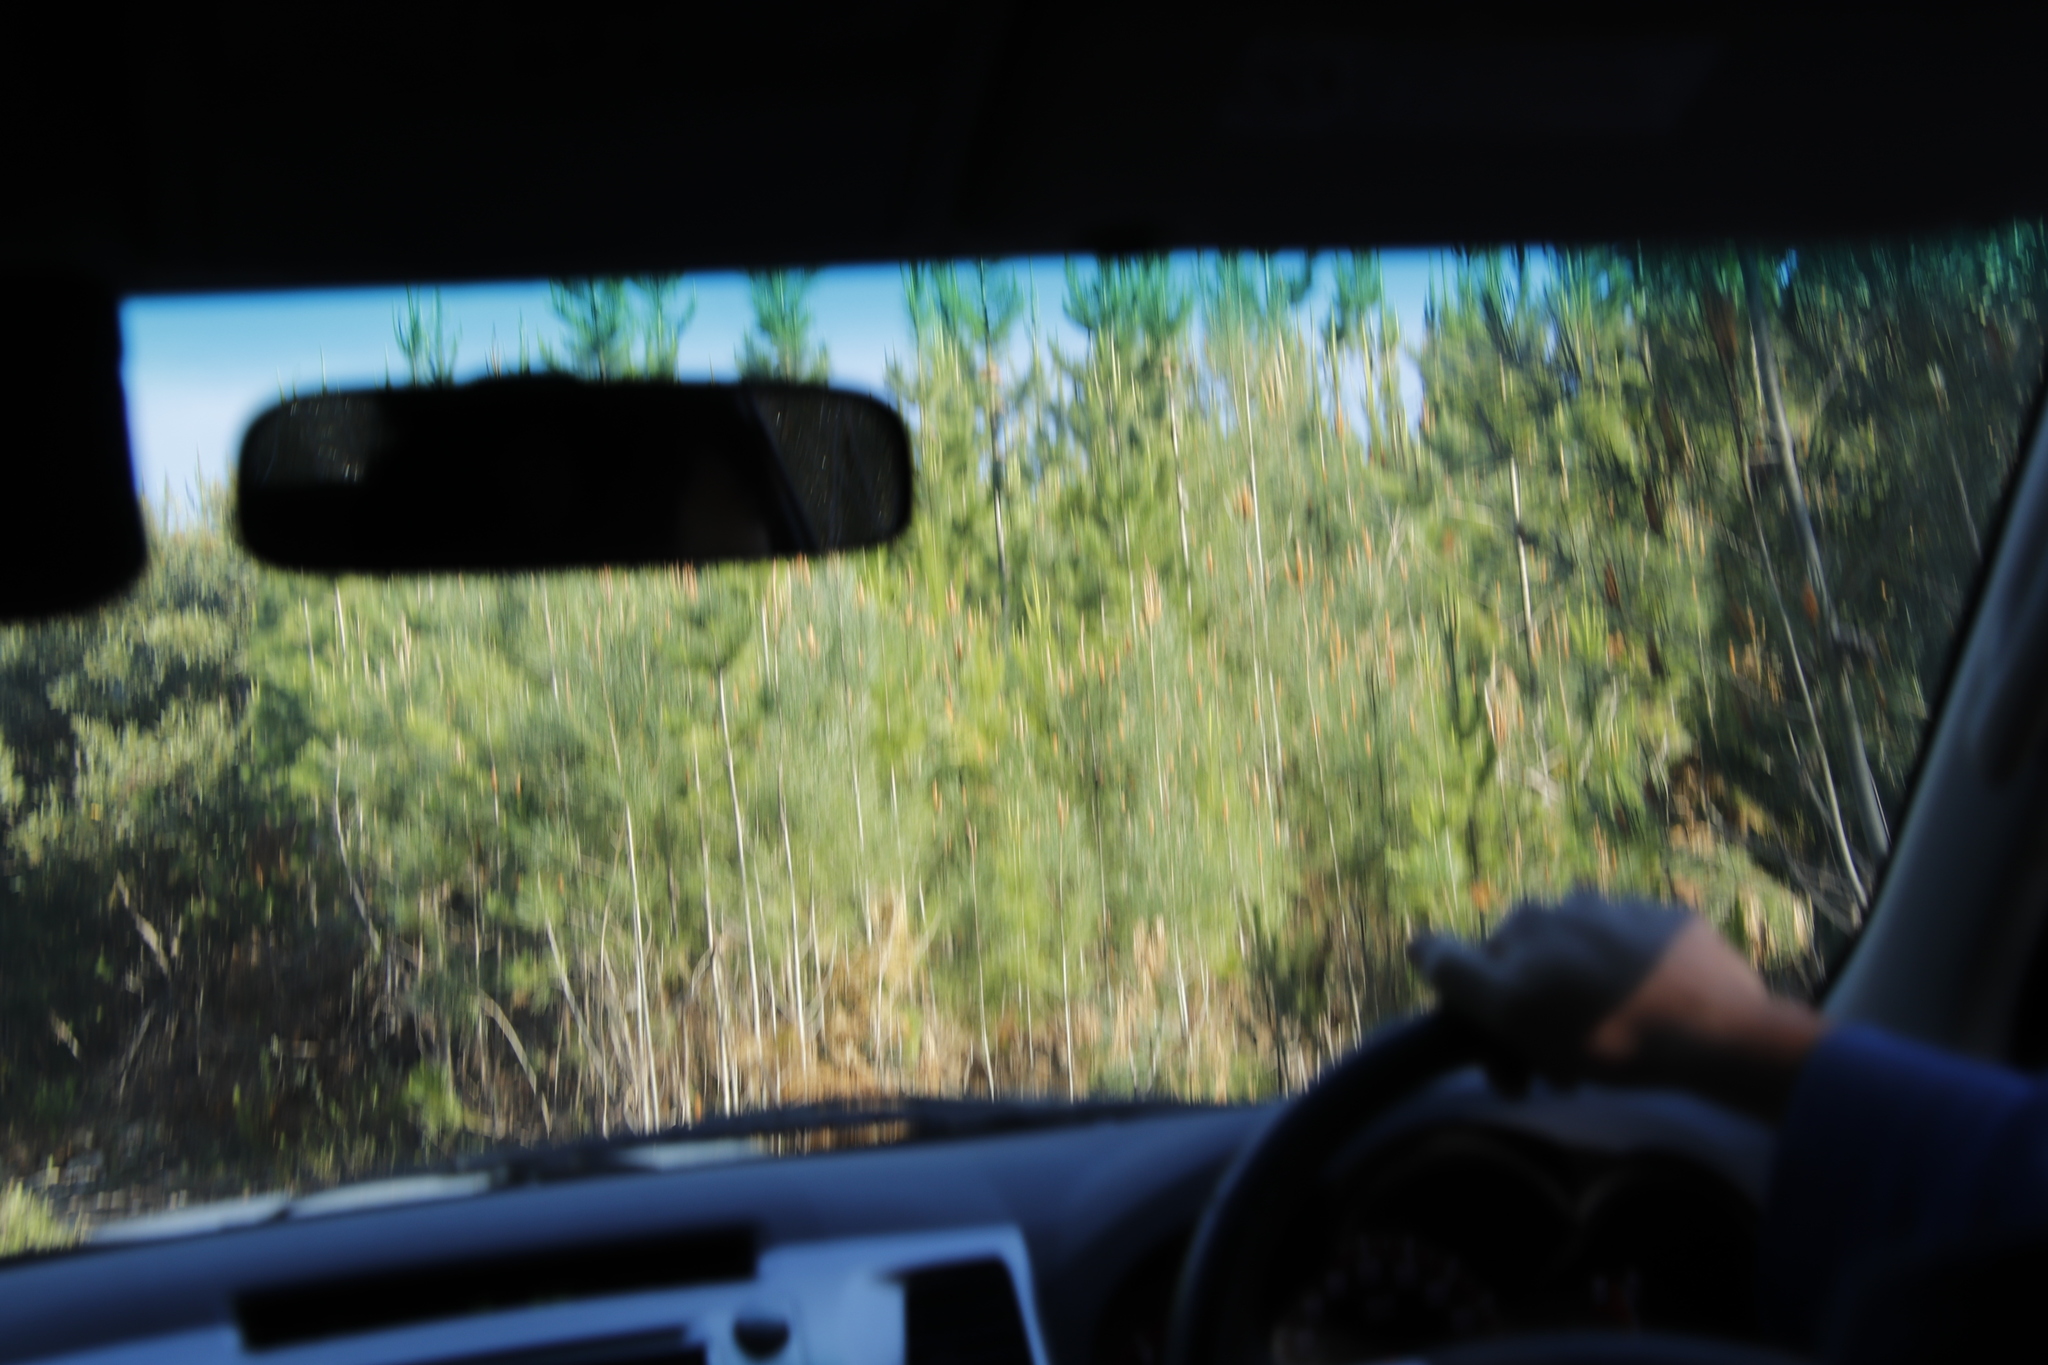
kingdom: Plantae
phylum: Tracheophyta
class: Pinopsida
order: Pinales
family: Pinaceae
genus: Pinus
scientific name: Pinus pinaster
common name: Maritime pine
